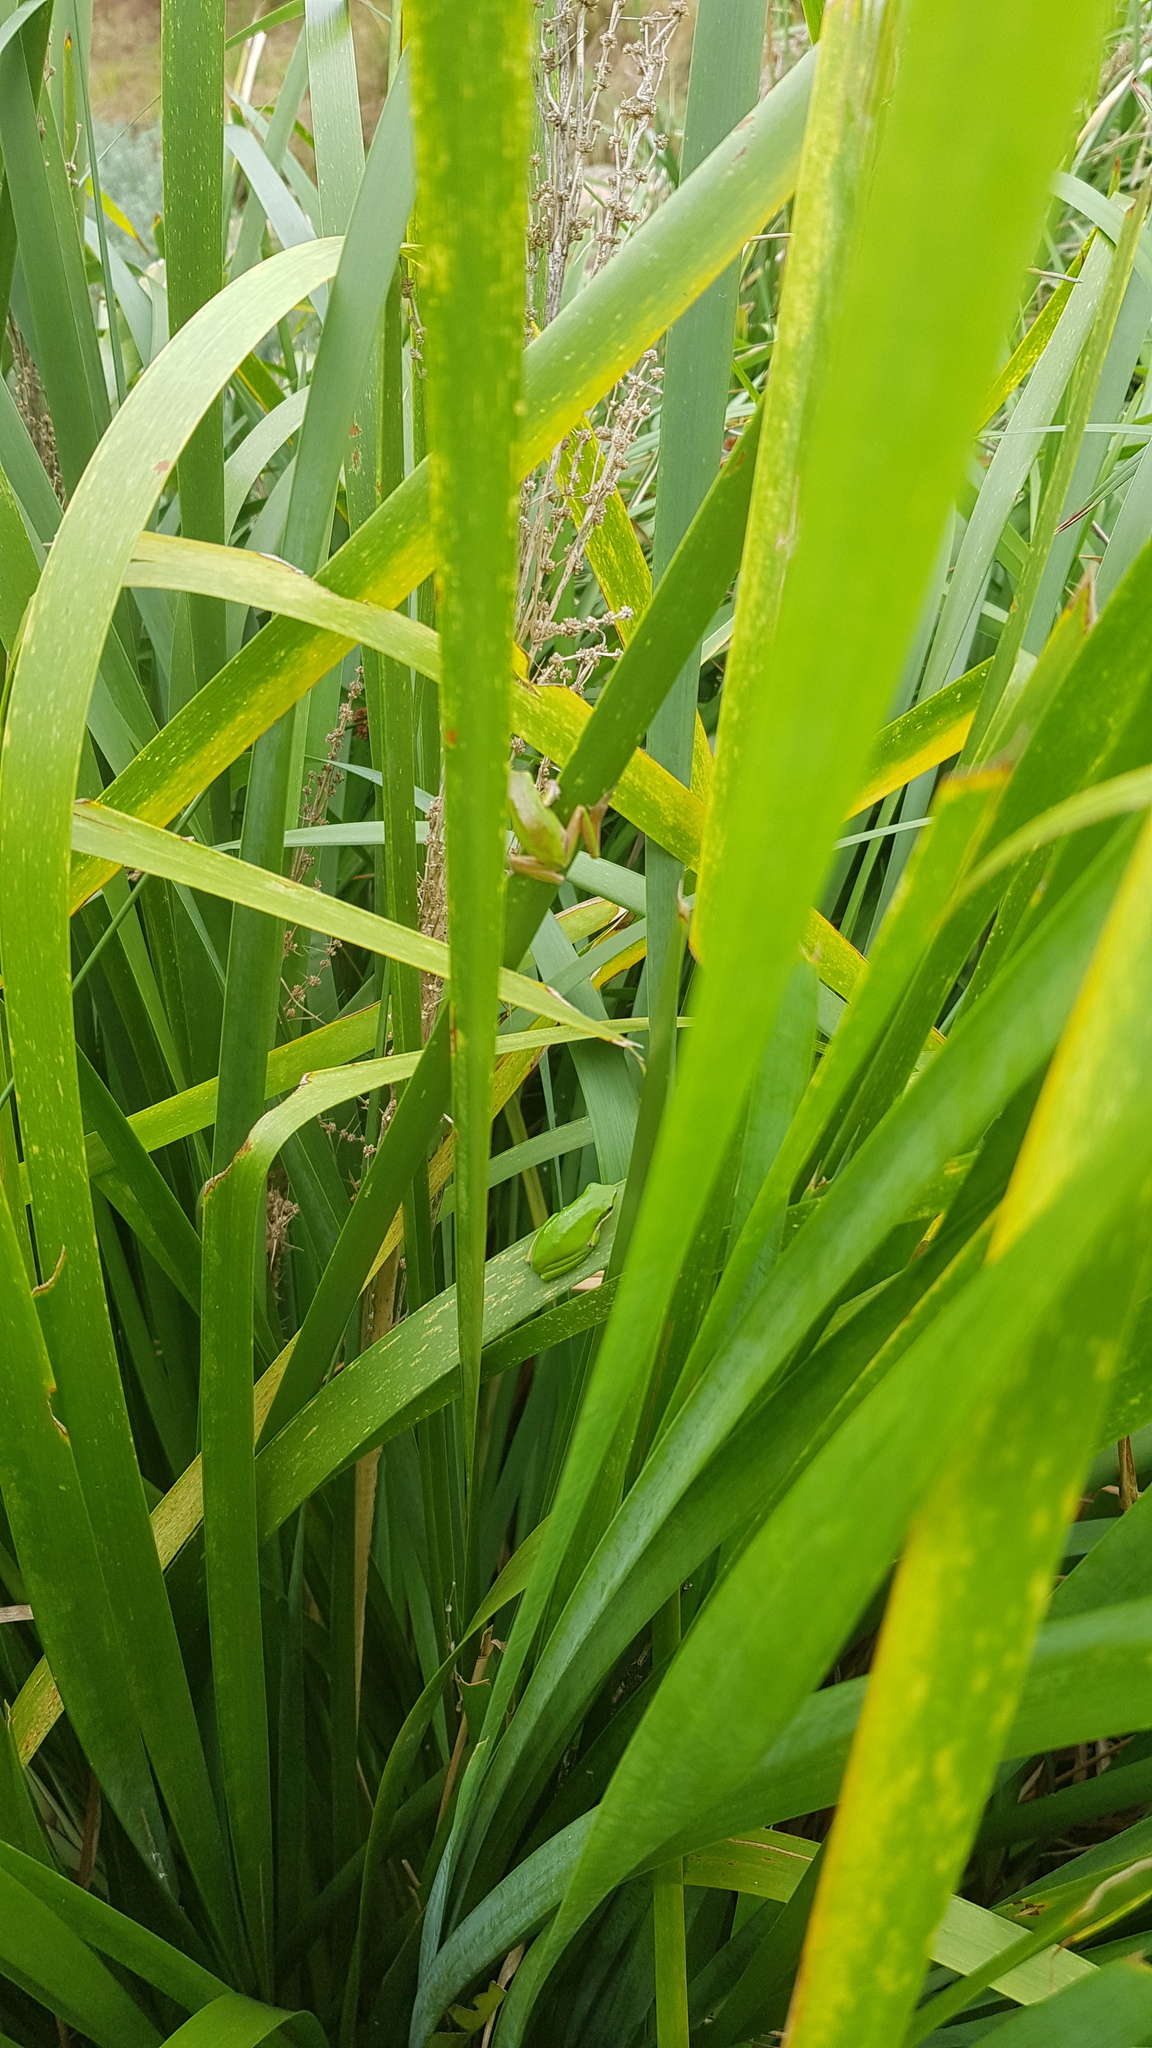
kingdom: Animalia
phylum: Chordata
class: Amphibia
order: Anura
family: Pelodryadidae
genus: Litoria
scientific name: Litoria fallax
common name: Eastern dwarf treefrog
